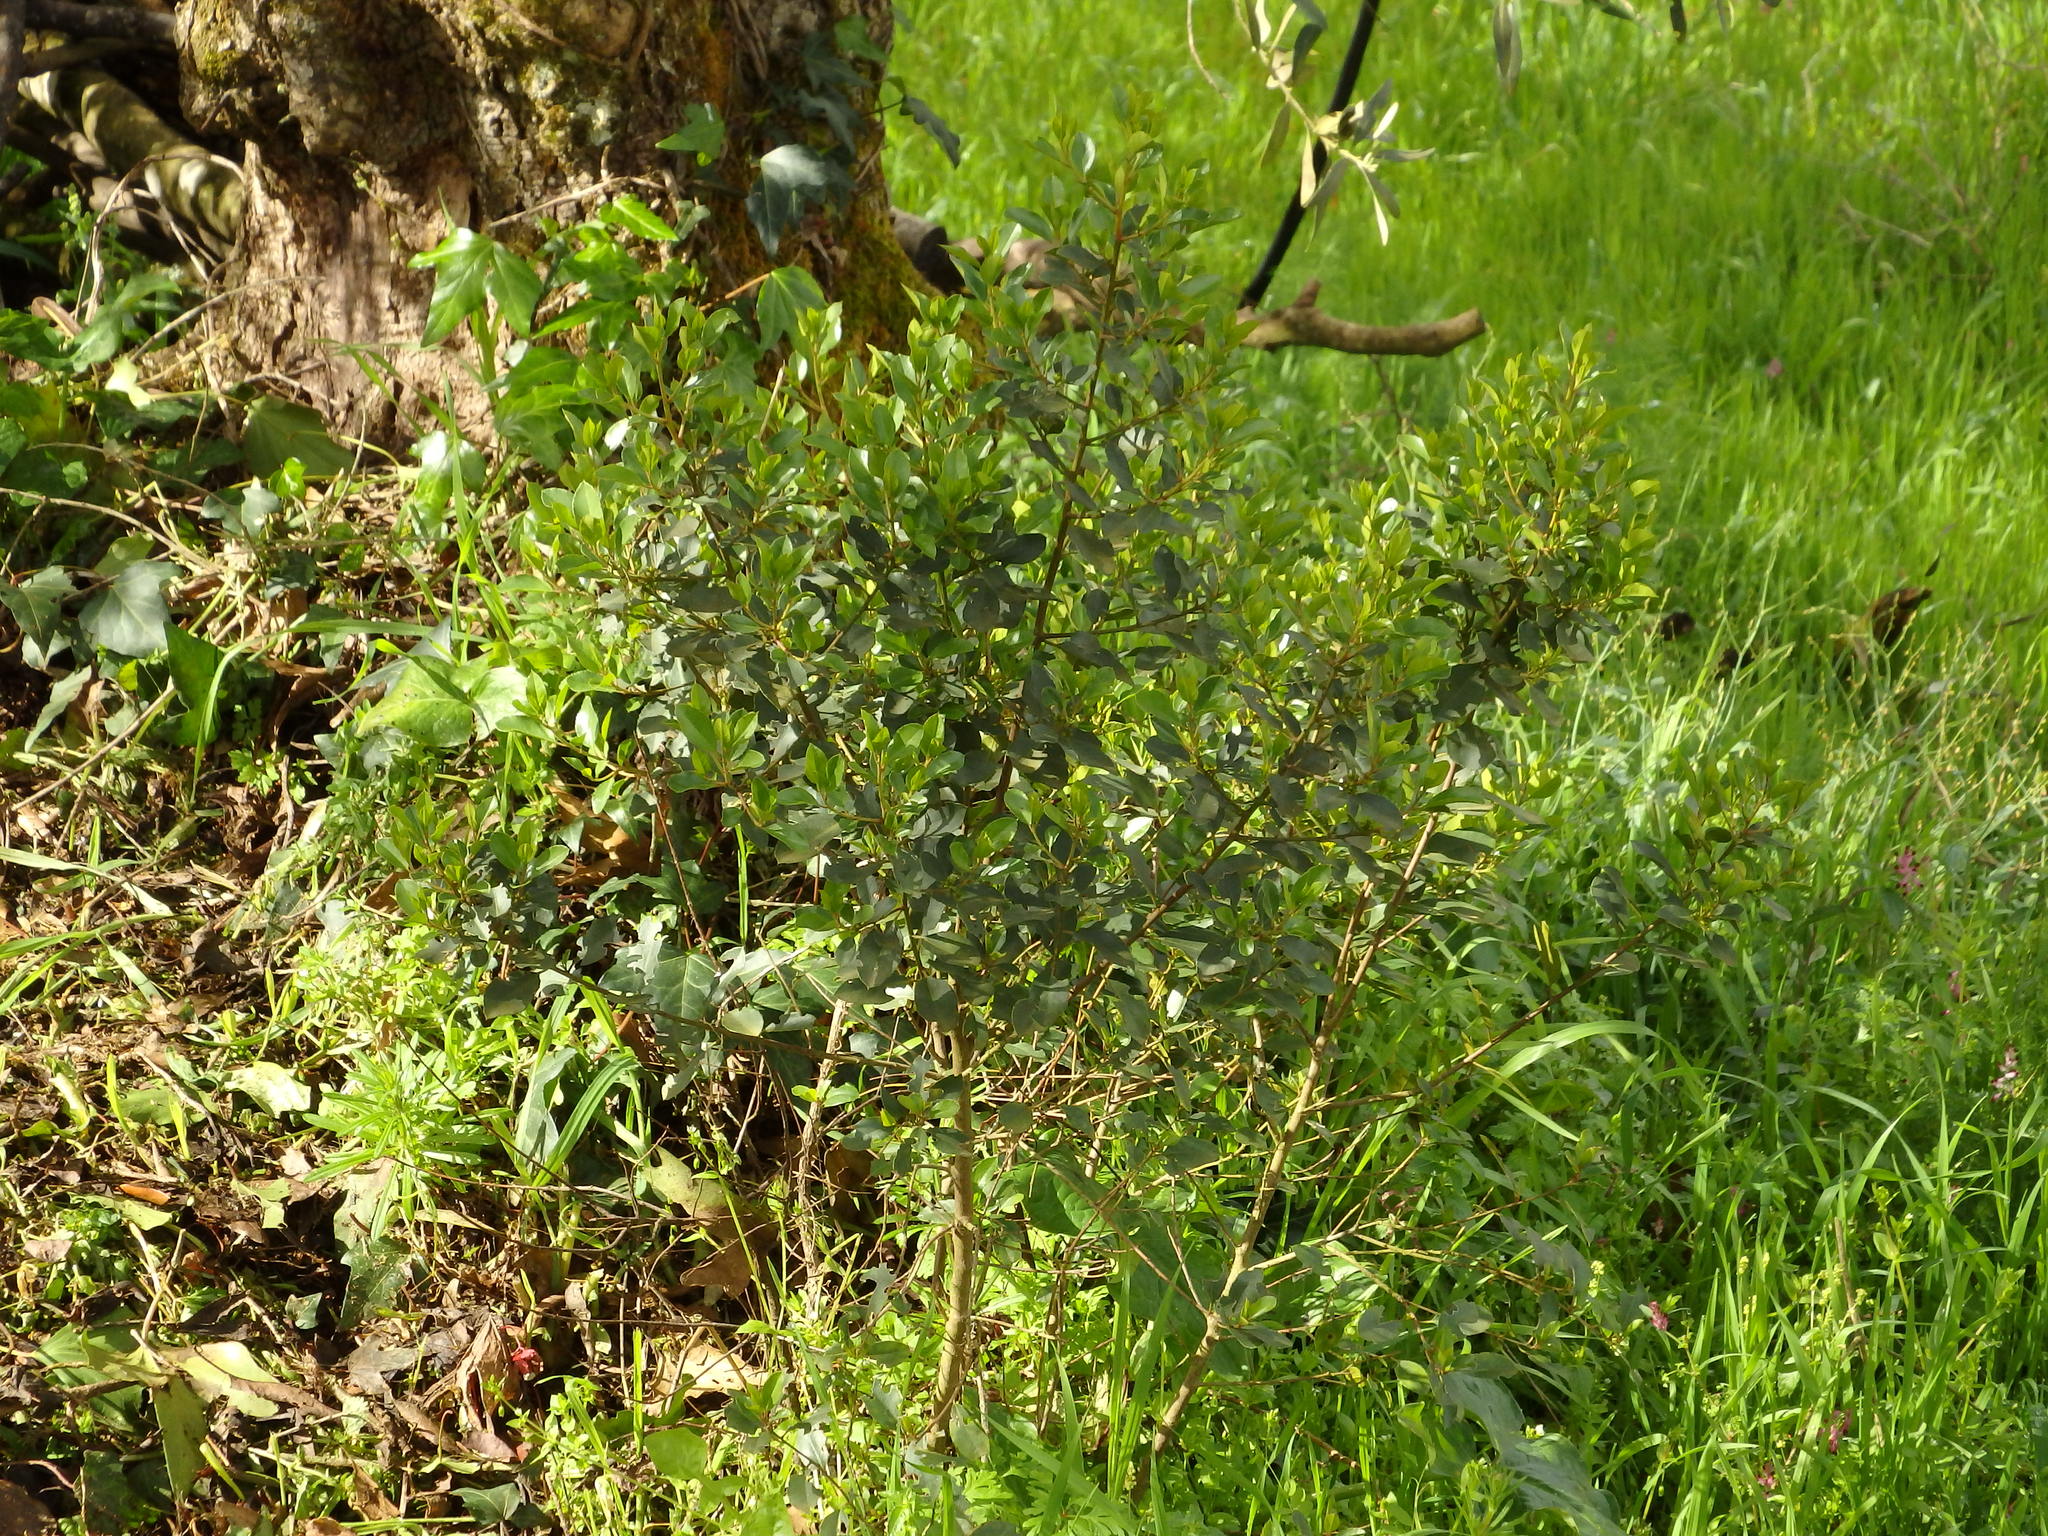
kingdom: Plantae
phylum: Tracheophyta
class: Magnoliopsida
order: Rosales
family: Rhamnaceae
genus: Rhamnus
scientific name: Rhamnus alaternus
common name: Mediterranean buckthorn
